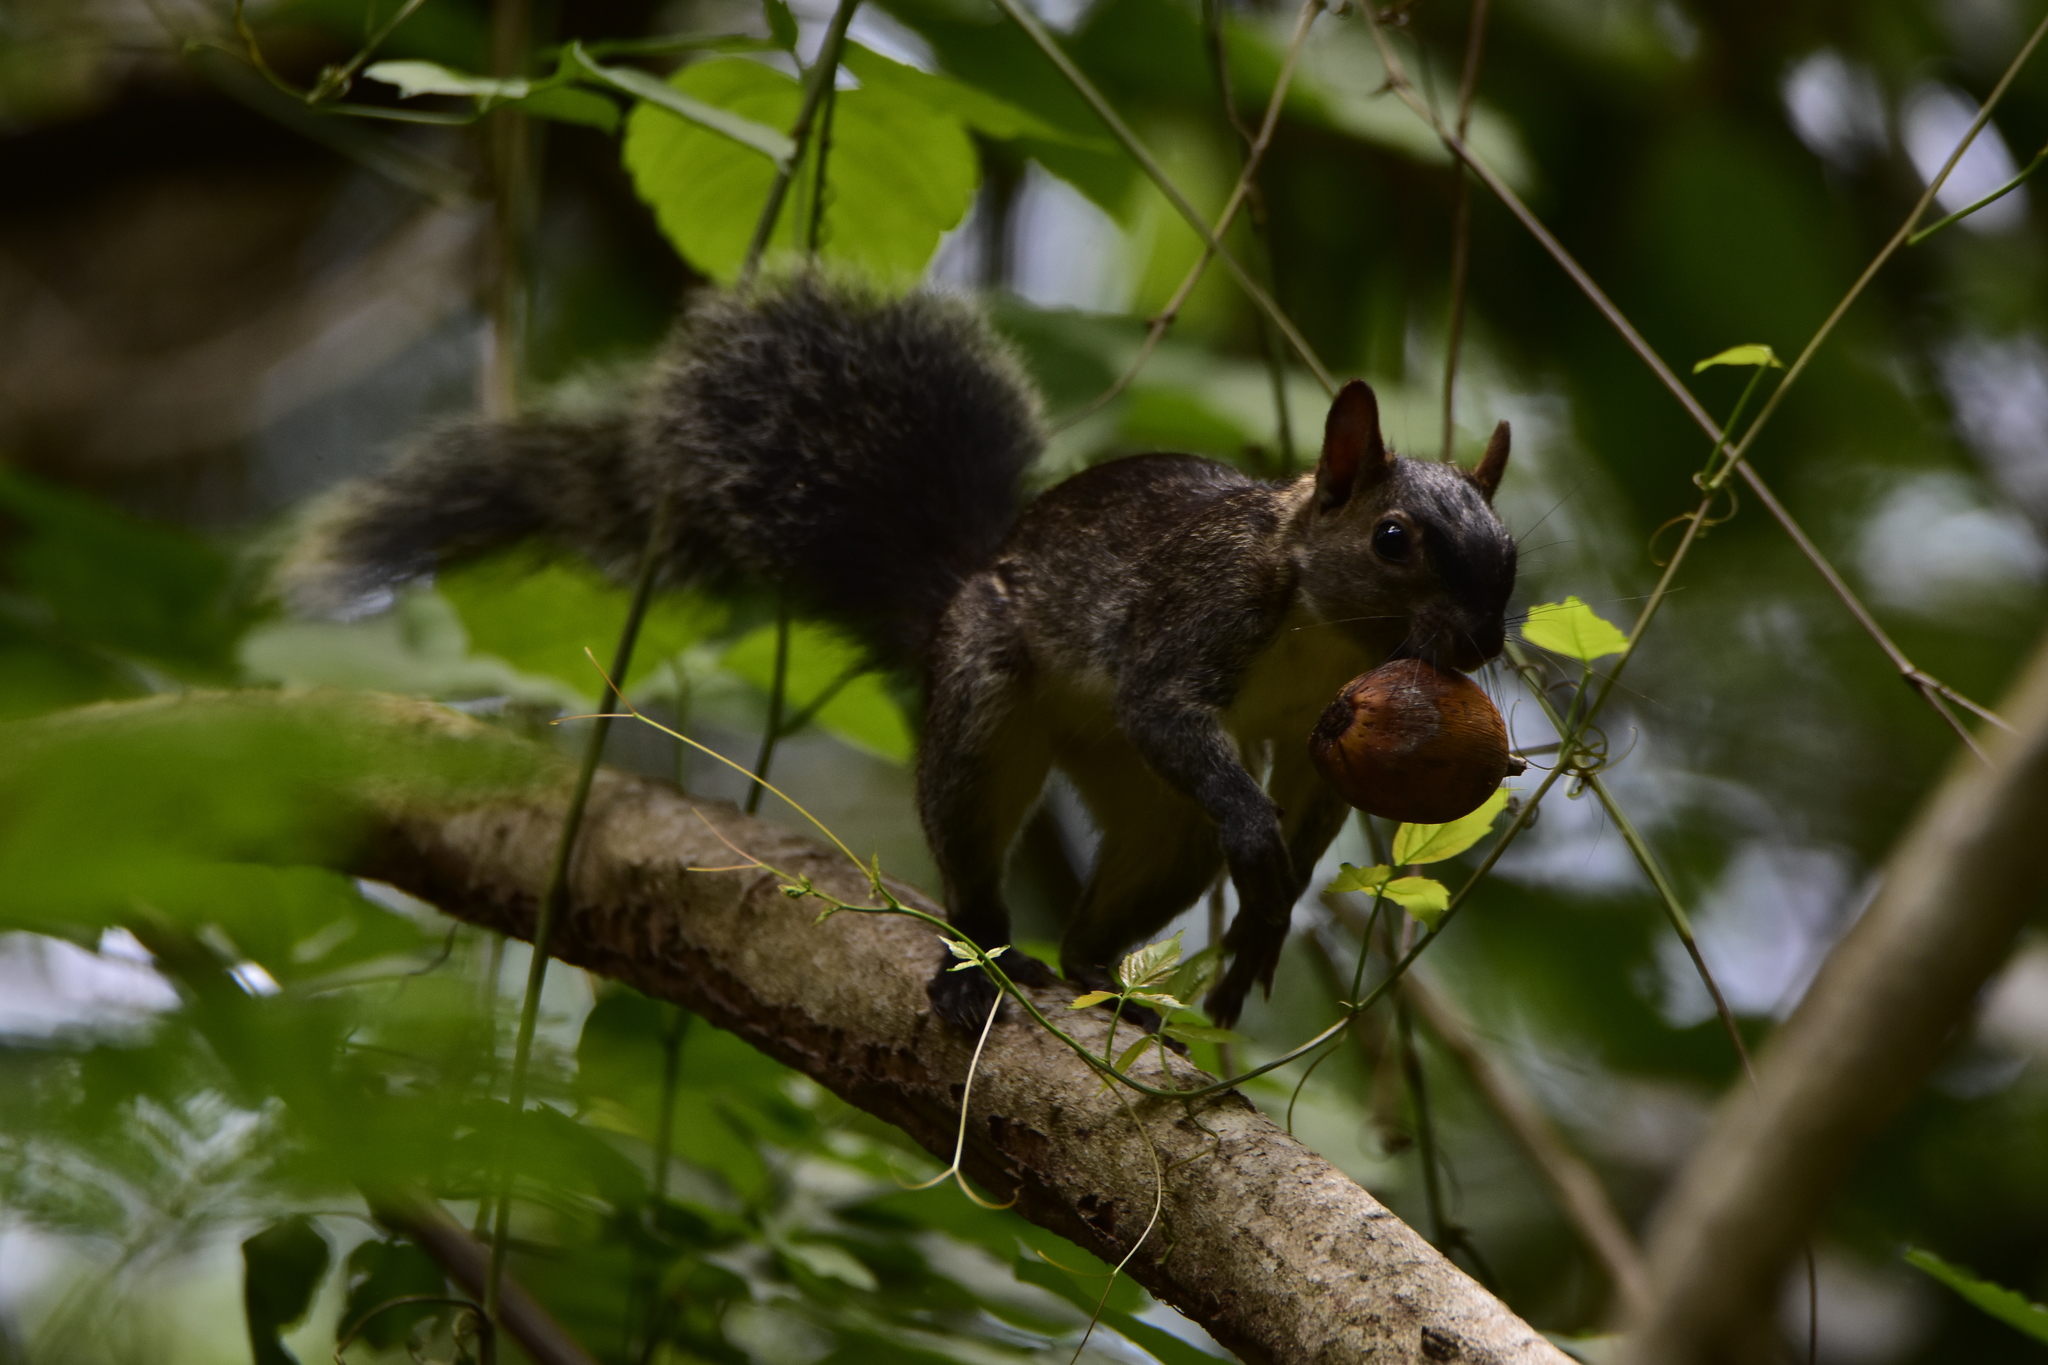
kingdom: Animalia
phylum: Chordata
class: Mammalia
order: Rodentia
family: Sciuridae
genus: Sciurus
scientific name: Sciurus colliaei
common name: Collie's squirrel
